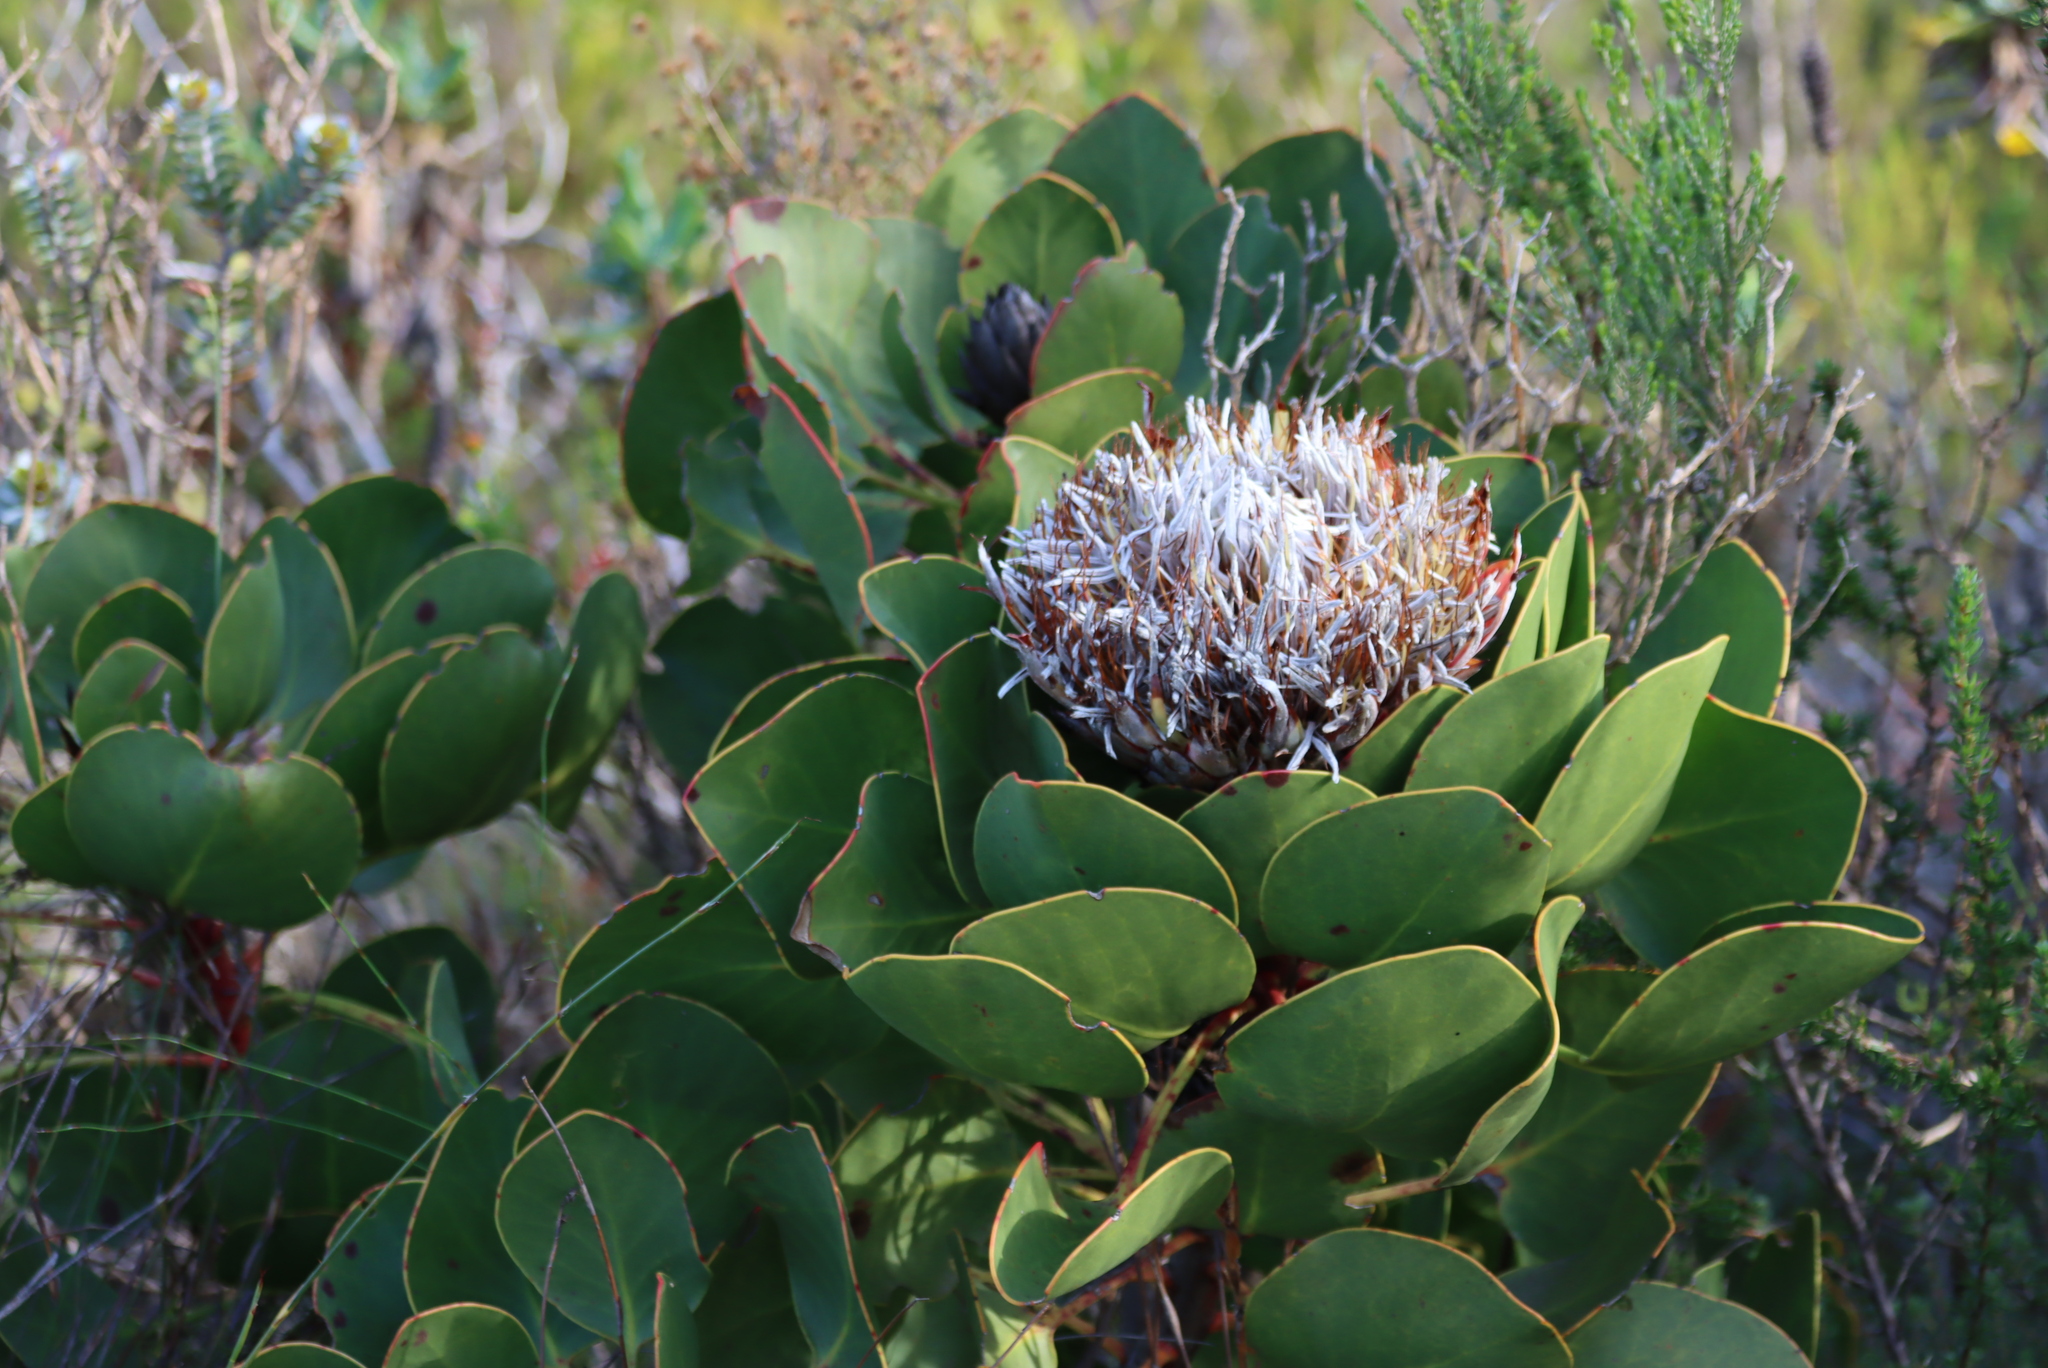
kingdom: Plantae
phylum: Tracheophyta
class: Magnoliopsida
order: Proteales
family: Proteaceae
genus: Protea
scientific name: Protea cynaroides
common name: King protea
